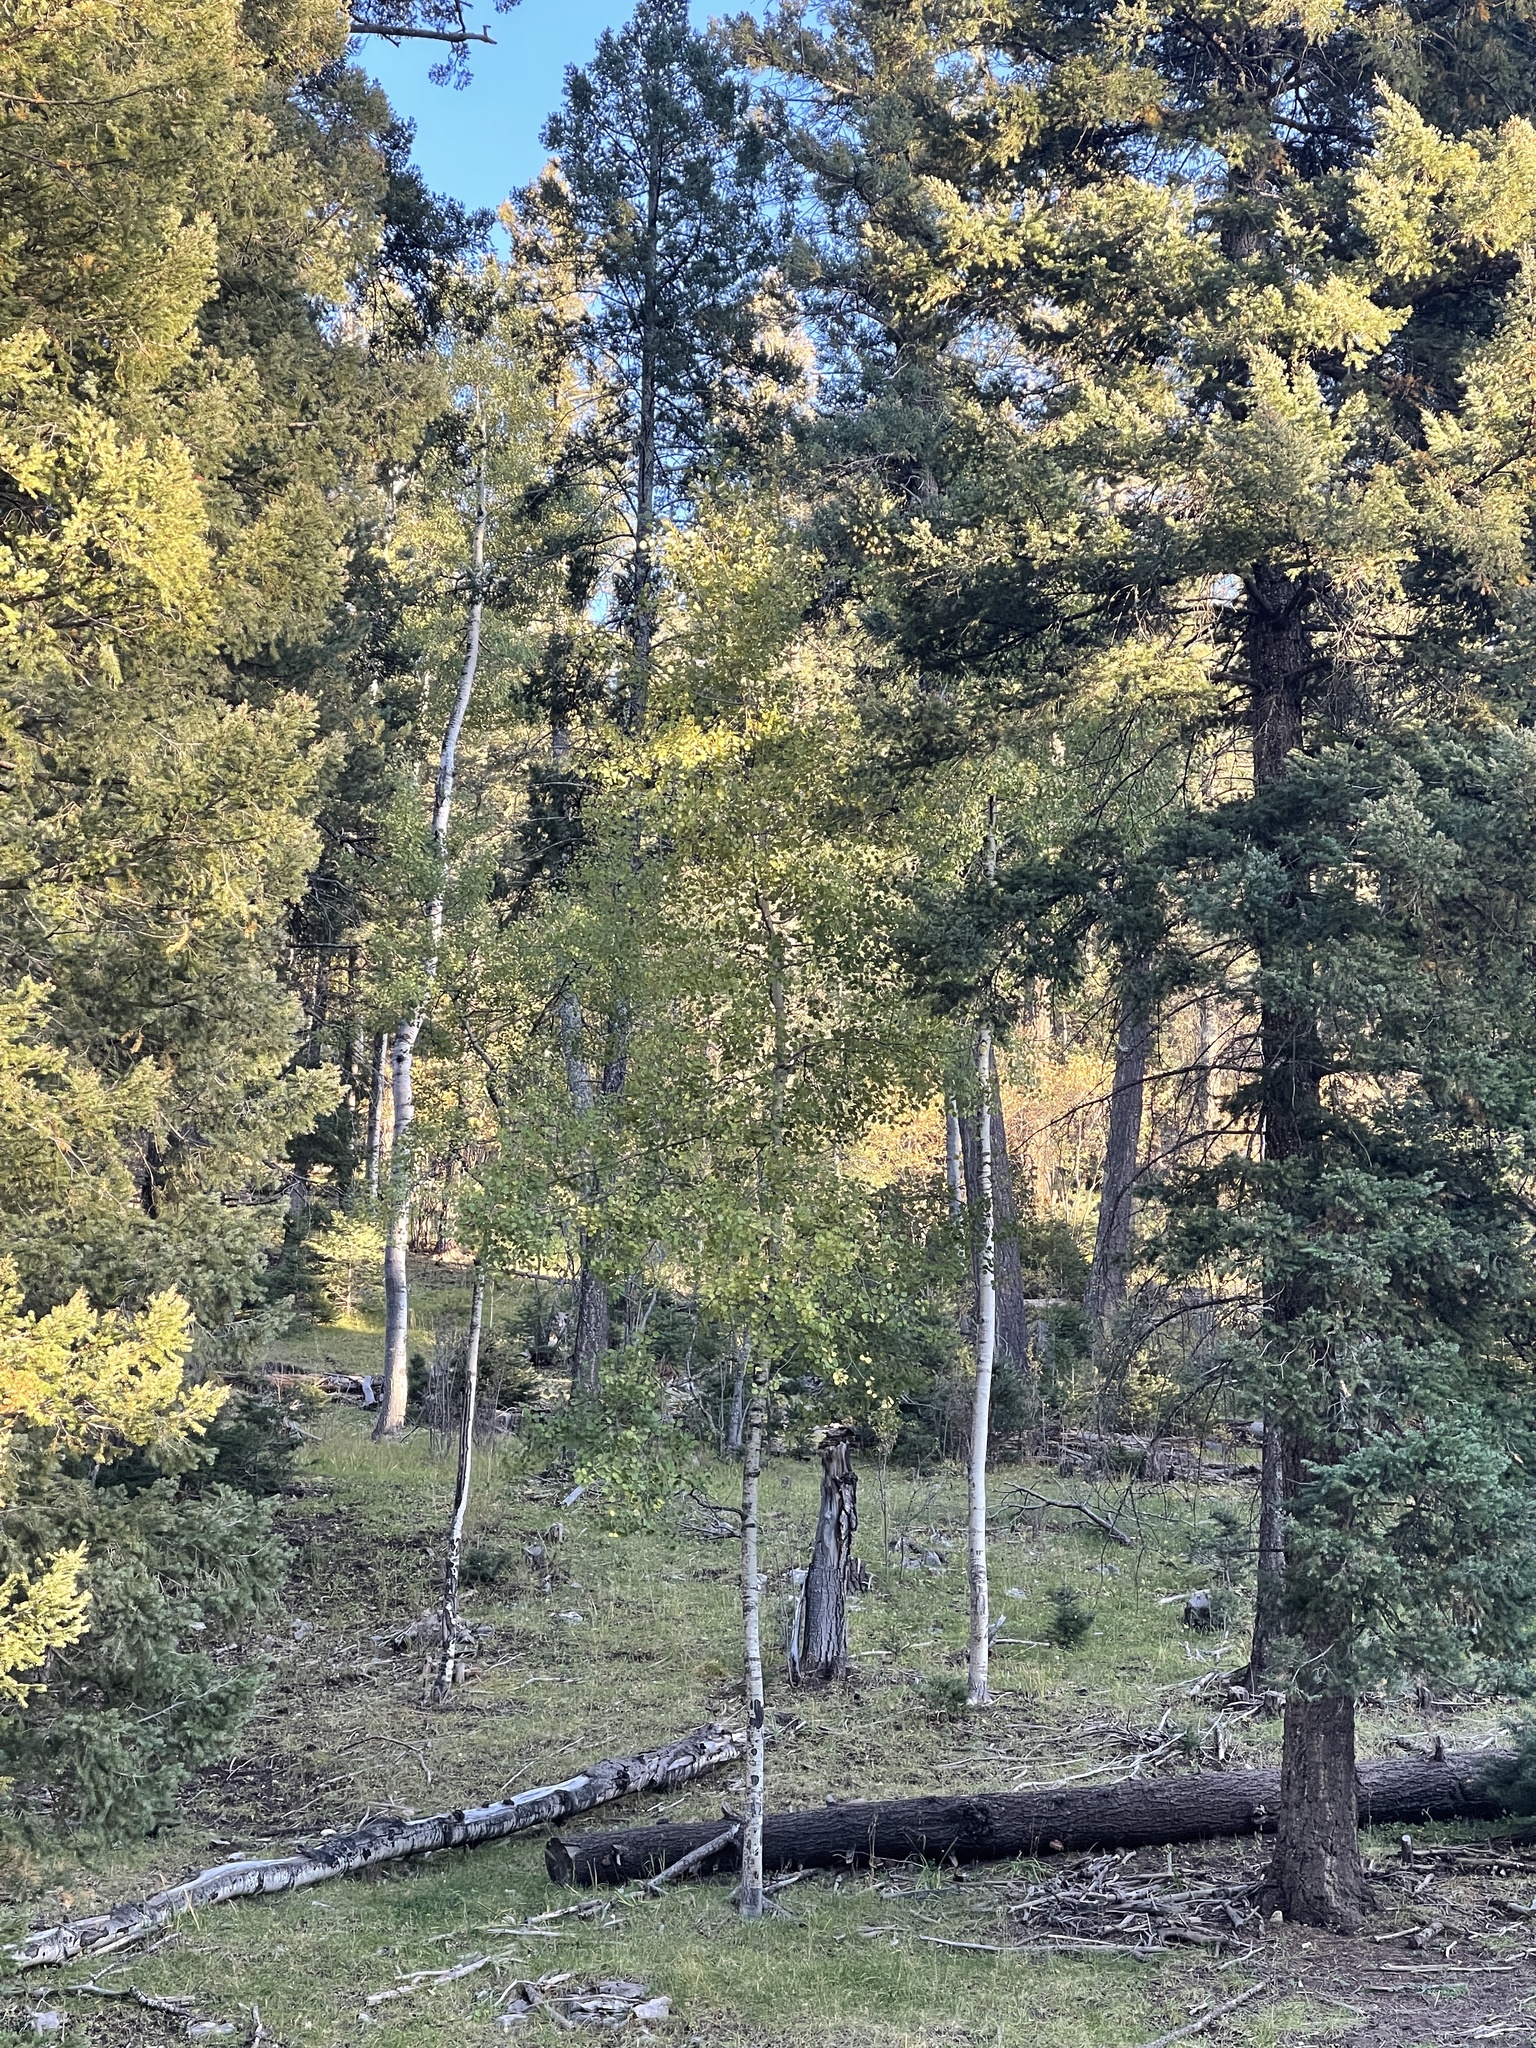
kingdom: Plantae
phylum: Tracheophyta
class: Magnoliopsida
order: Malpighiales
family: Salicaceae
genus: Populus
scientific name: Populus tremuloides
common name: Quaking aspen
